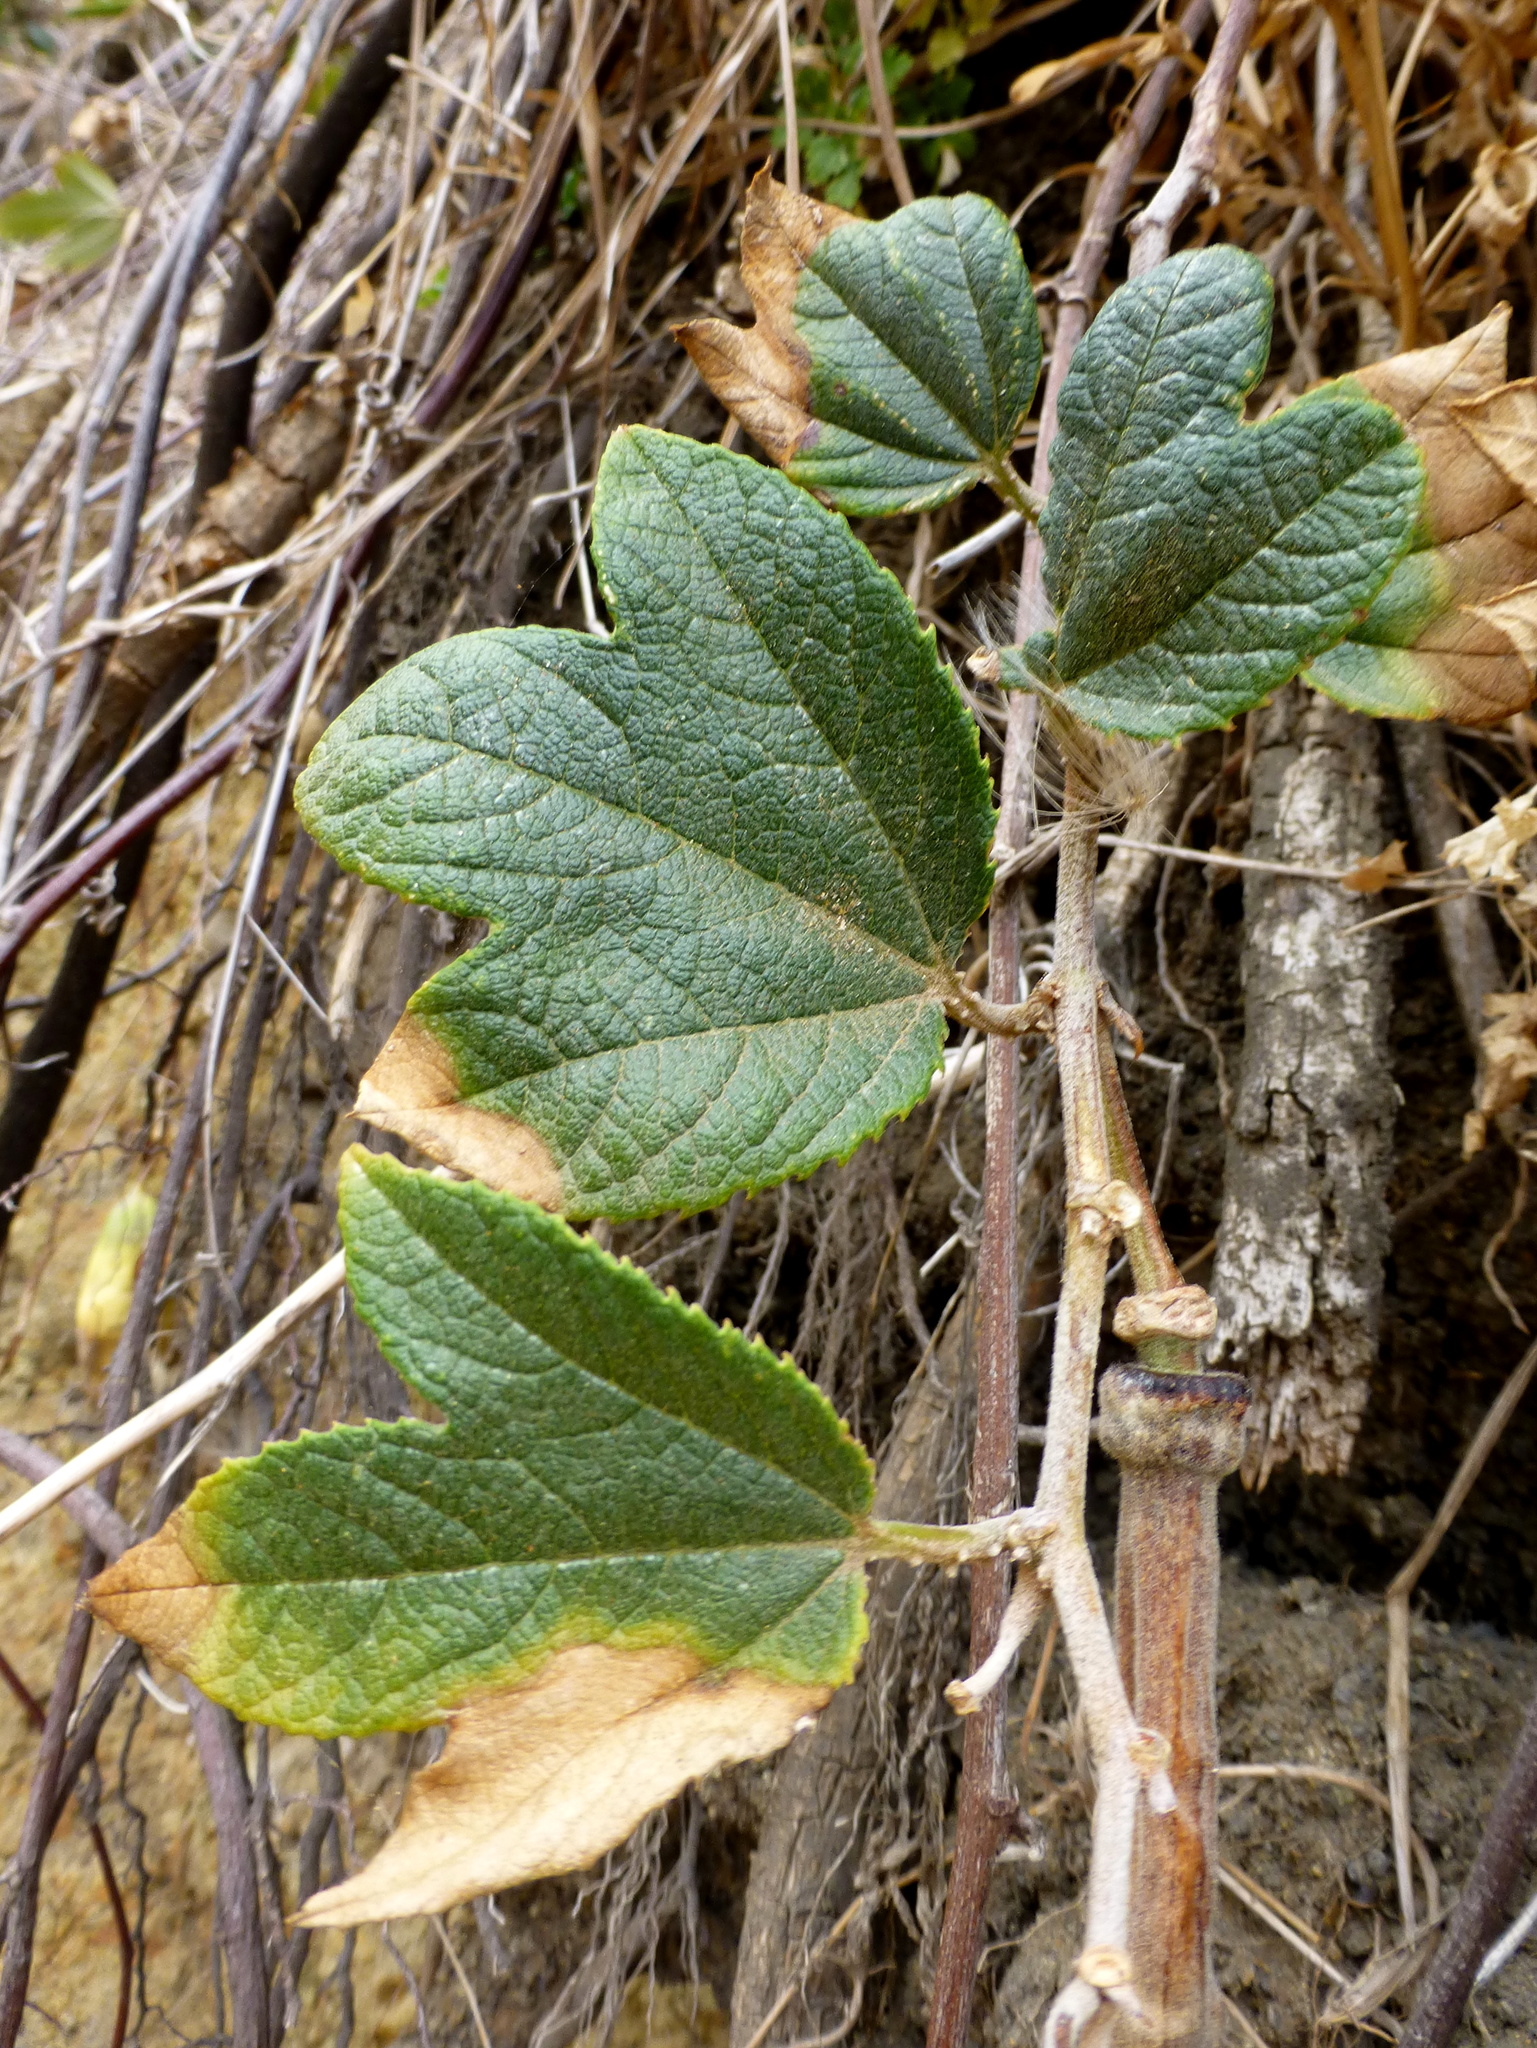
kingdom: Plantae
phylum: Tracheophyta
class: Magnoliopsida
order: Malpighiales
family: Passifloraceae
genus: Passiflora
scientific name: Passiflora rosea
